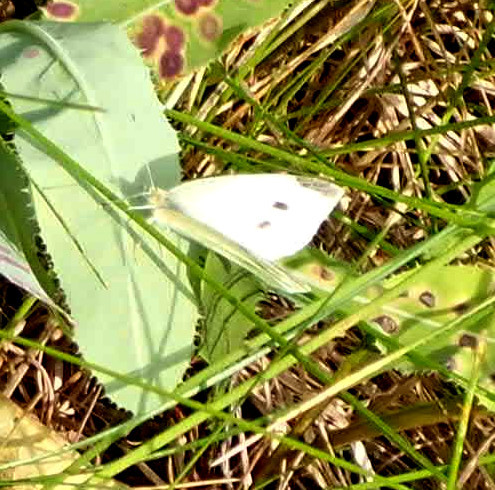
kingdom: Animalia
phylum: Arthropoda
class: Insecta
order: Lepidoptera
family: Pieridae
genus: Pieris
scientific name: Pieris rapae
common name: Small white
